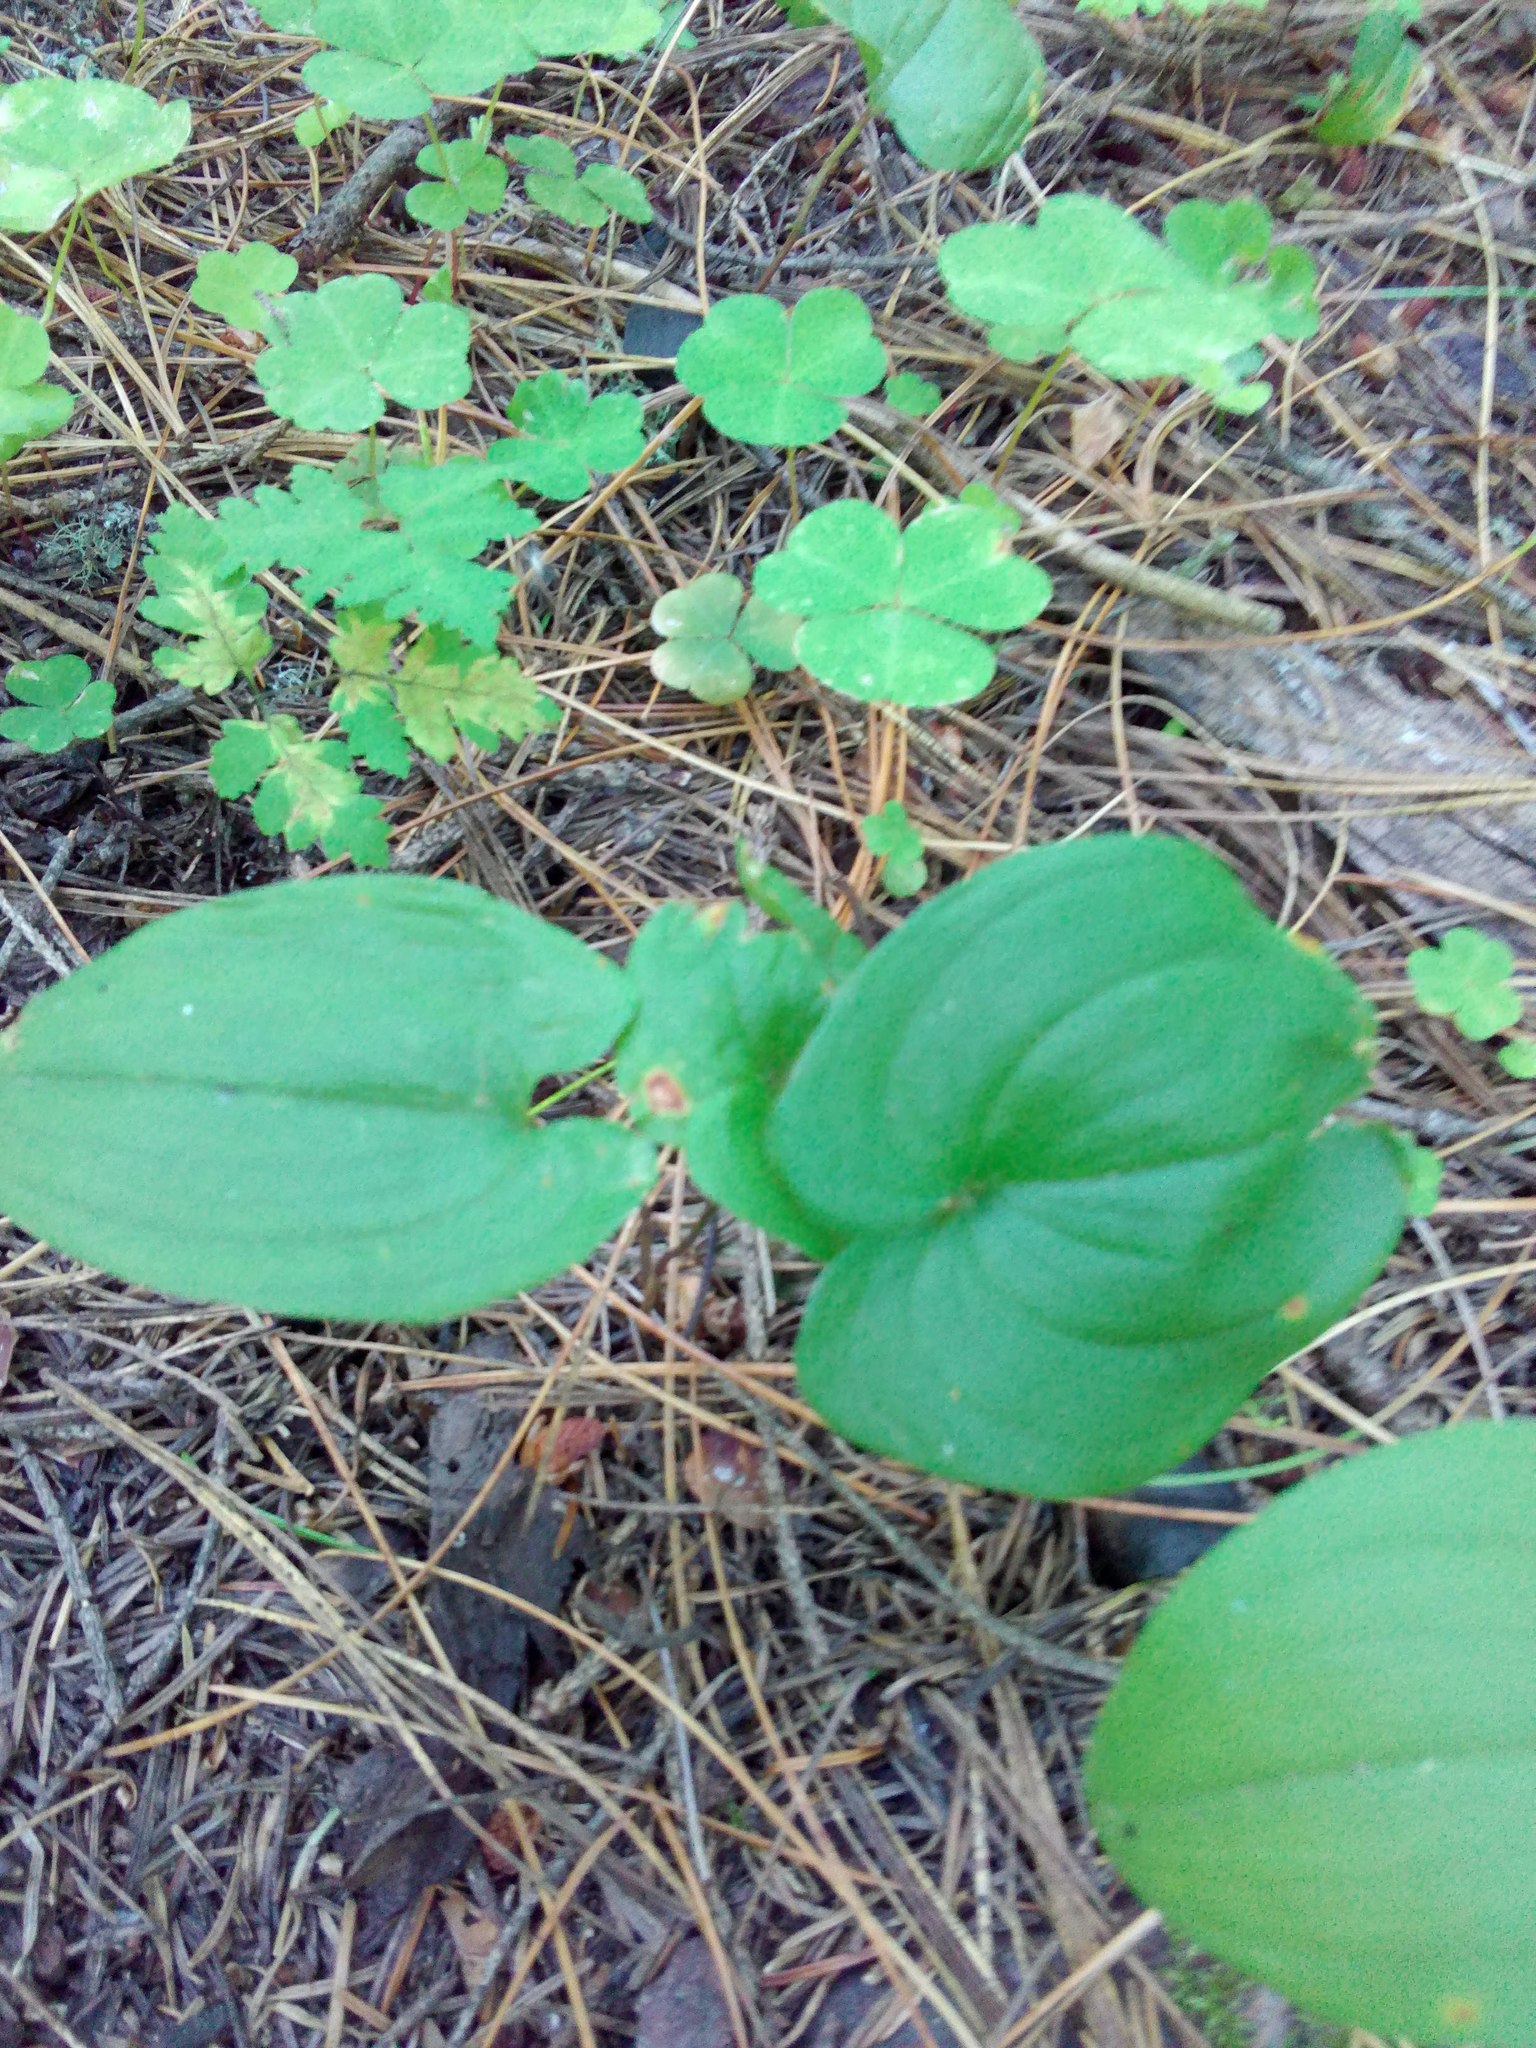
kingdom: Plantae
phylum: Tracheophyta
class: Liliopsida
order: Asparagales
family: Asparagaceae
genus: Maianthemum
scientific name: Maianthemum bifolium
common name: May lily
